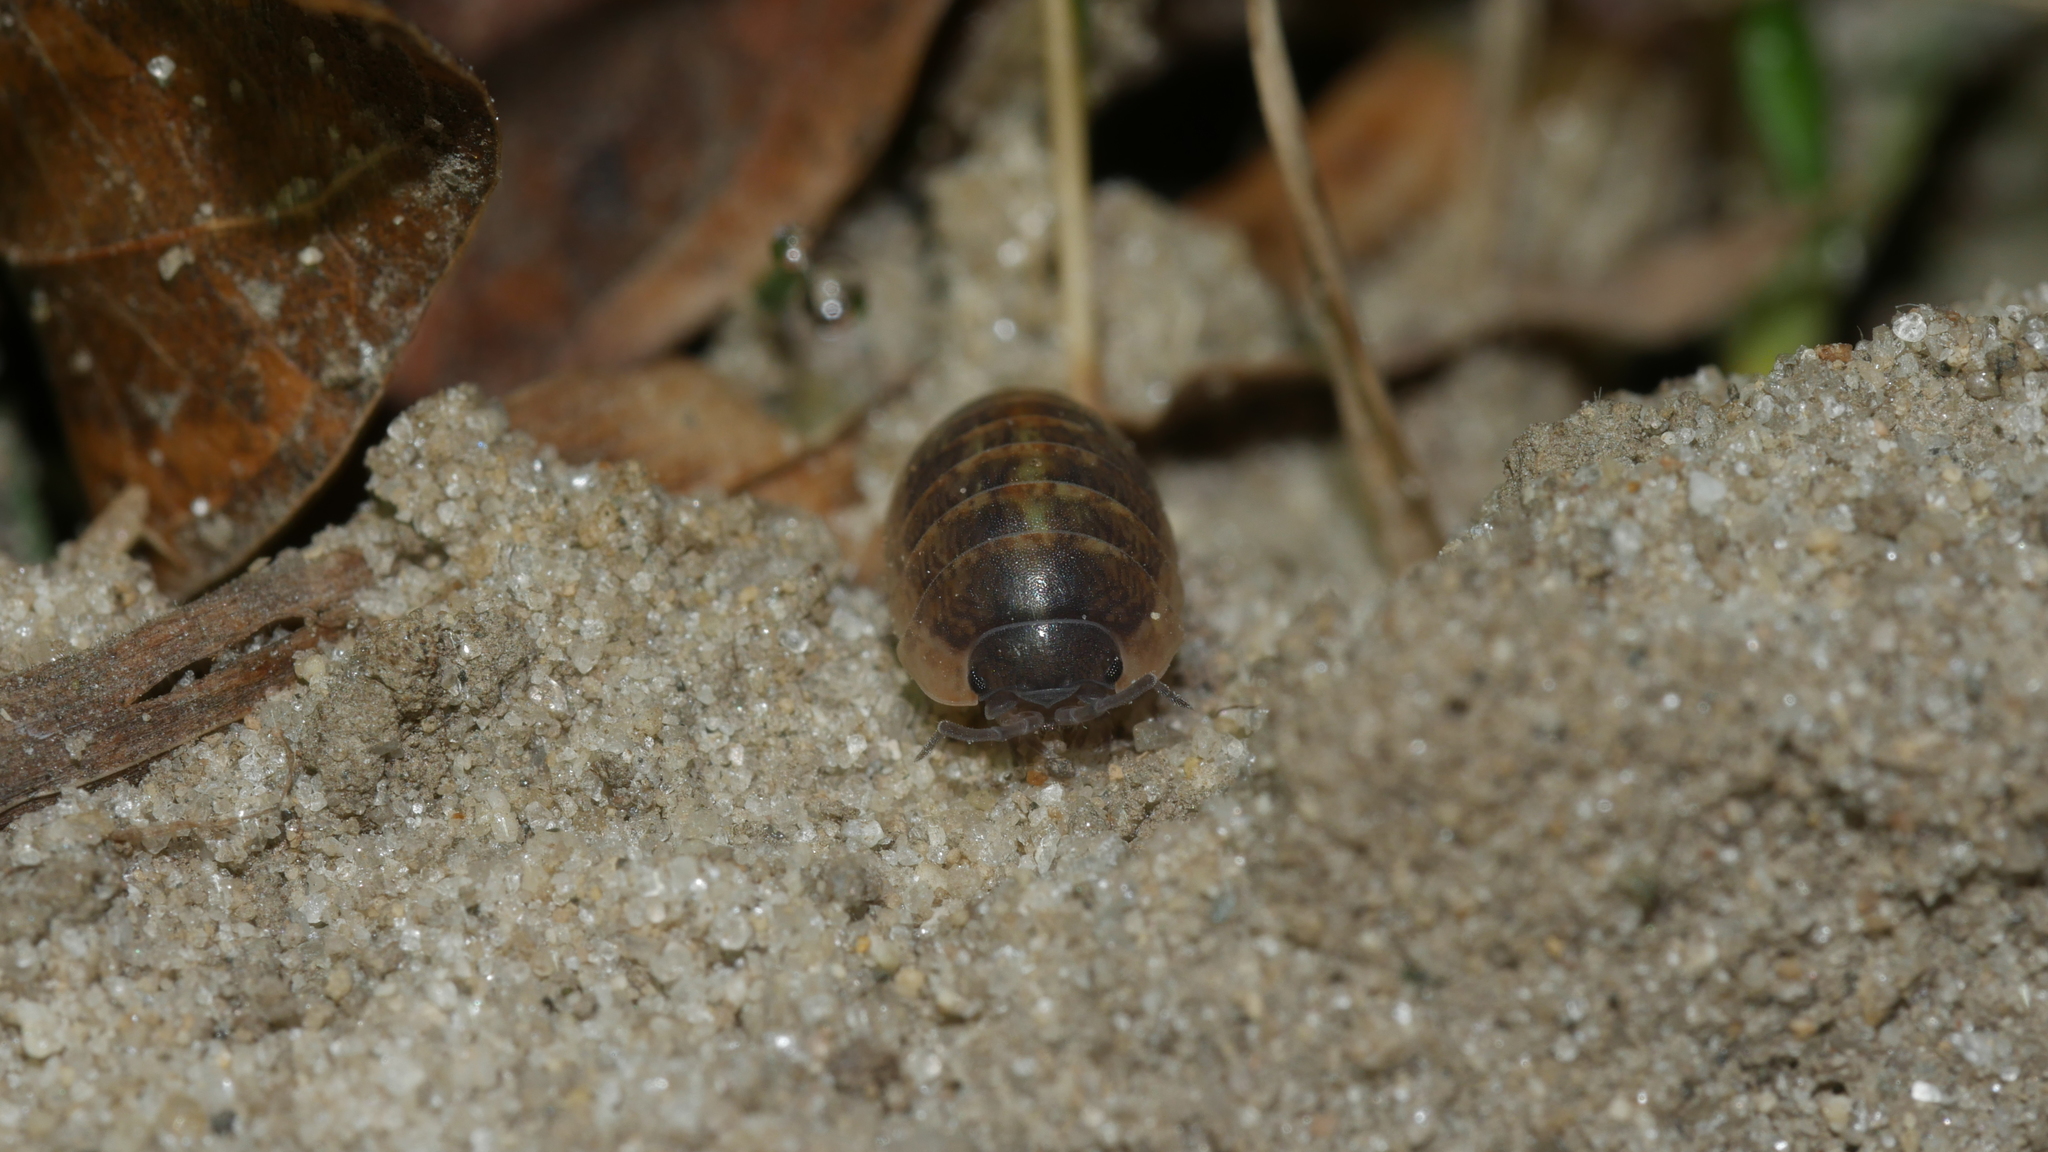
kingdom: Animalia
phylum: Arthropoda
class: Malacostraca
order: Isopoda
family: Armadillidiidae
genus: Armadillidium
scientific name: Armadillidium vulgare
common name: Common pill woodlouse
